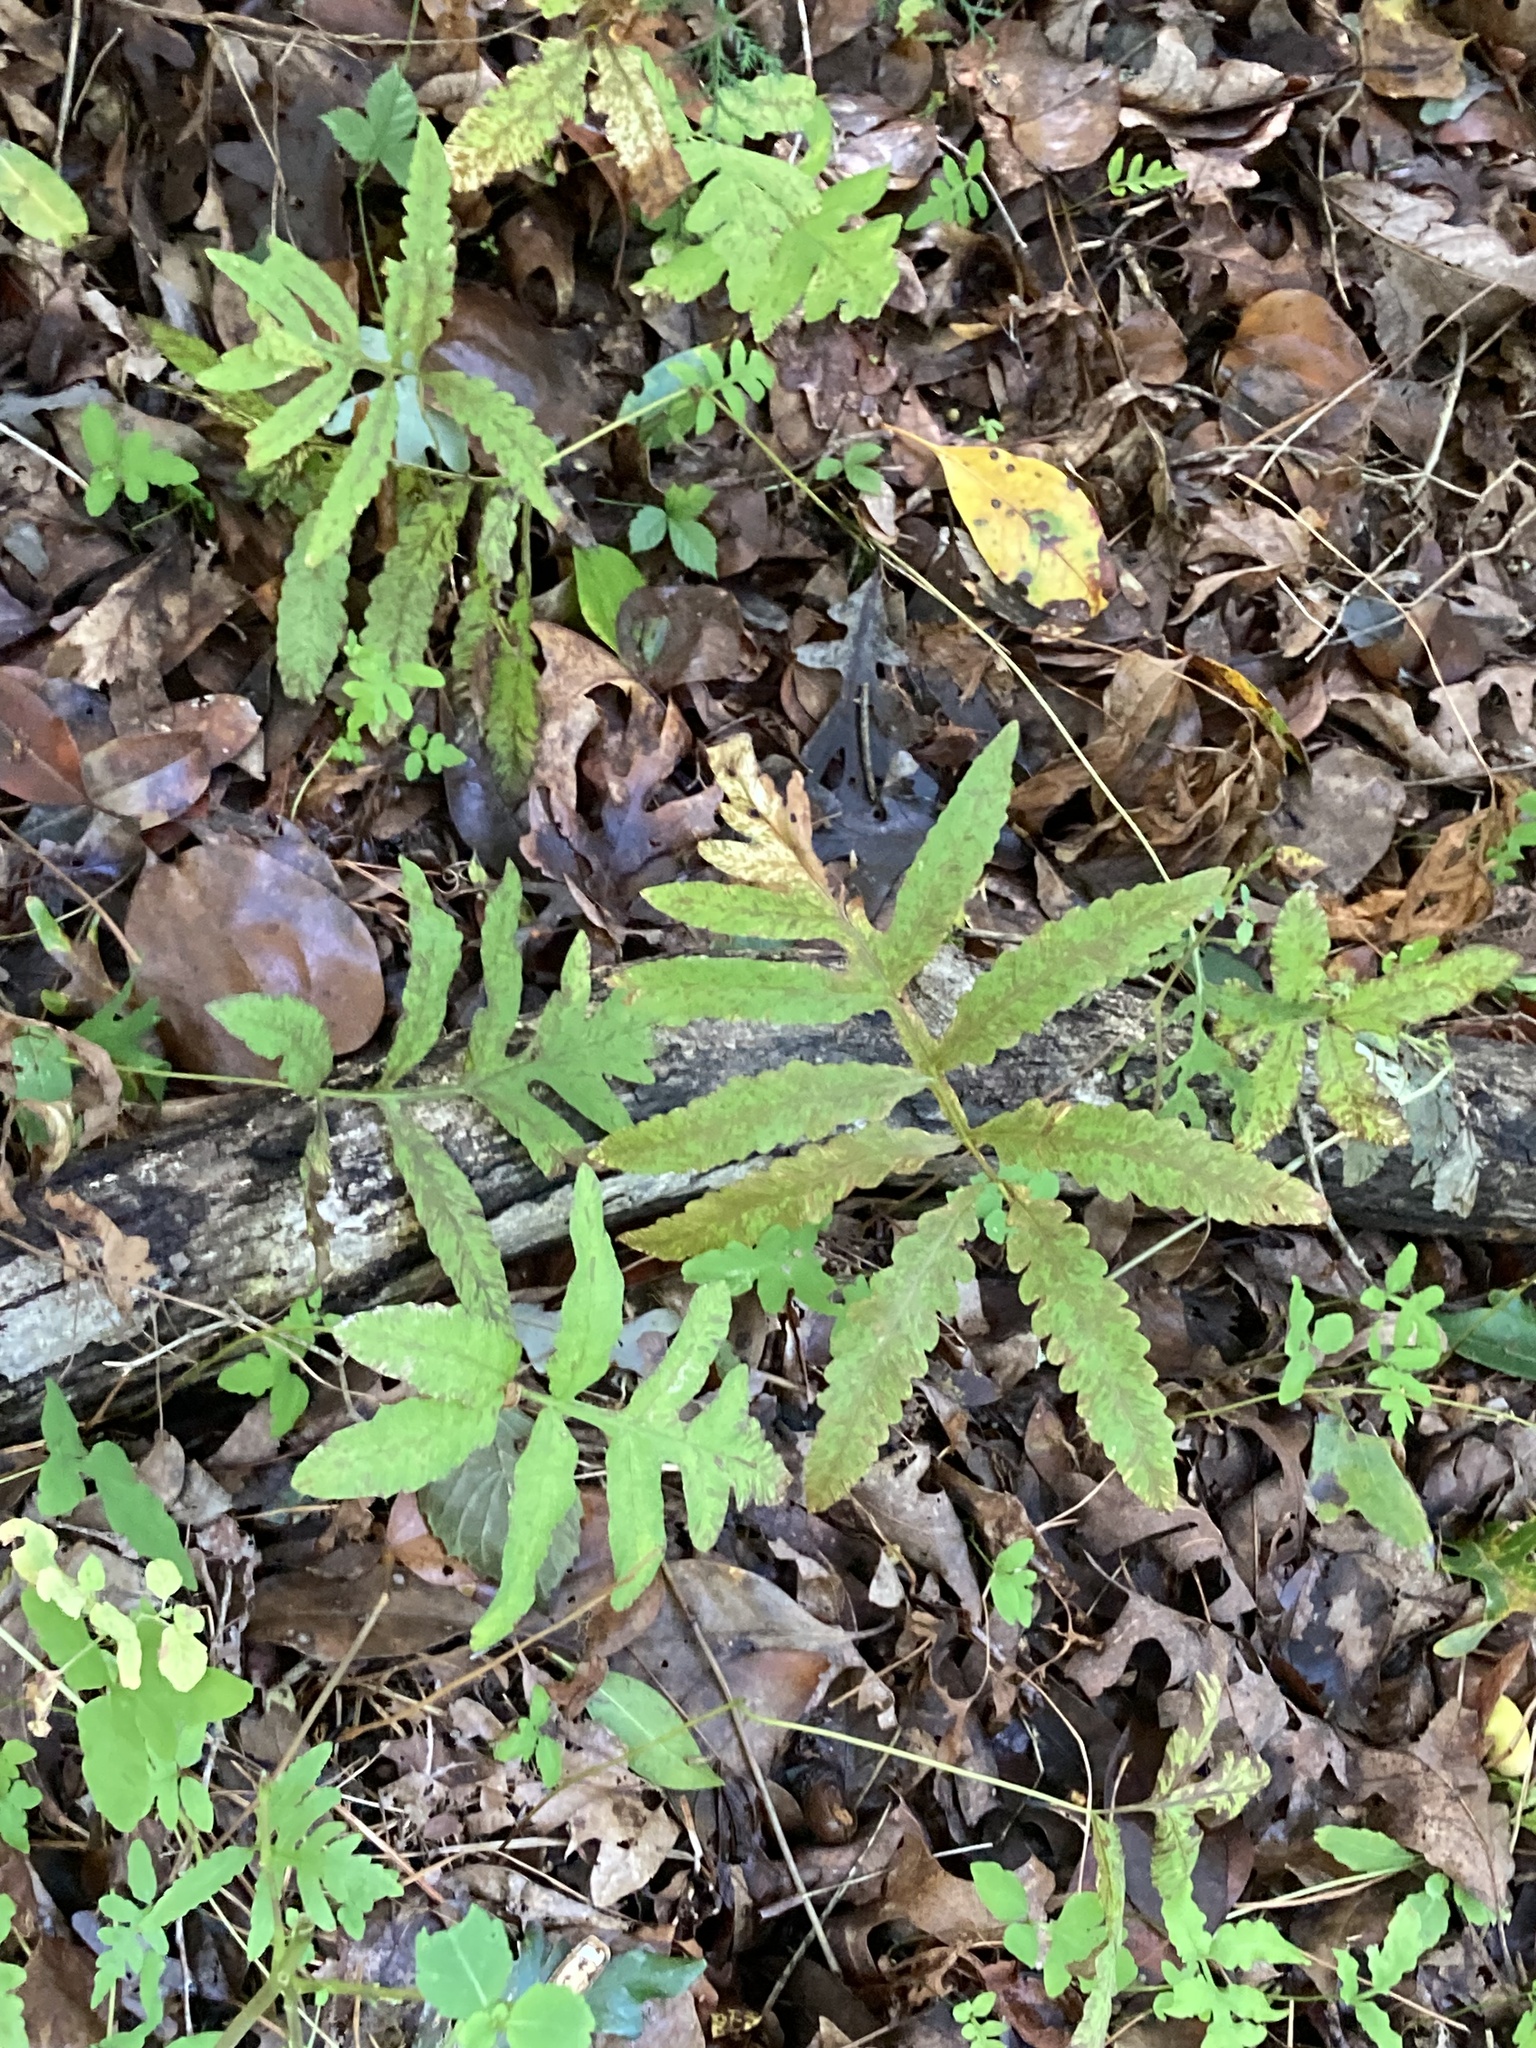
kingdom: Plantae
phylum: Tracheophyta
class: Polypodiopsida
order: Polypodiales
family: Onocleaceae
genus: Onoclea
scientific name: Onoclea sensibilis
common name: Sensitive fern
